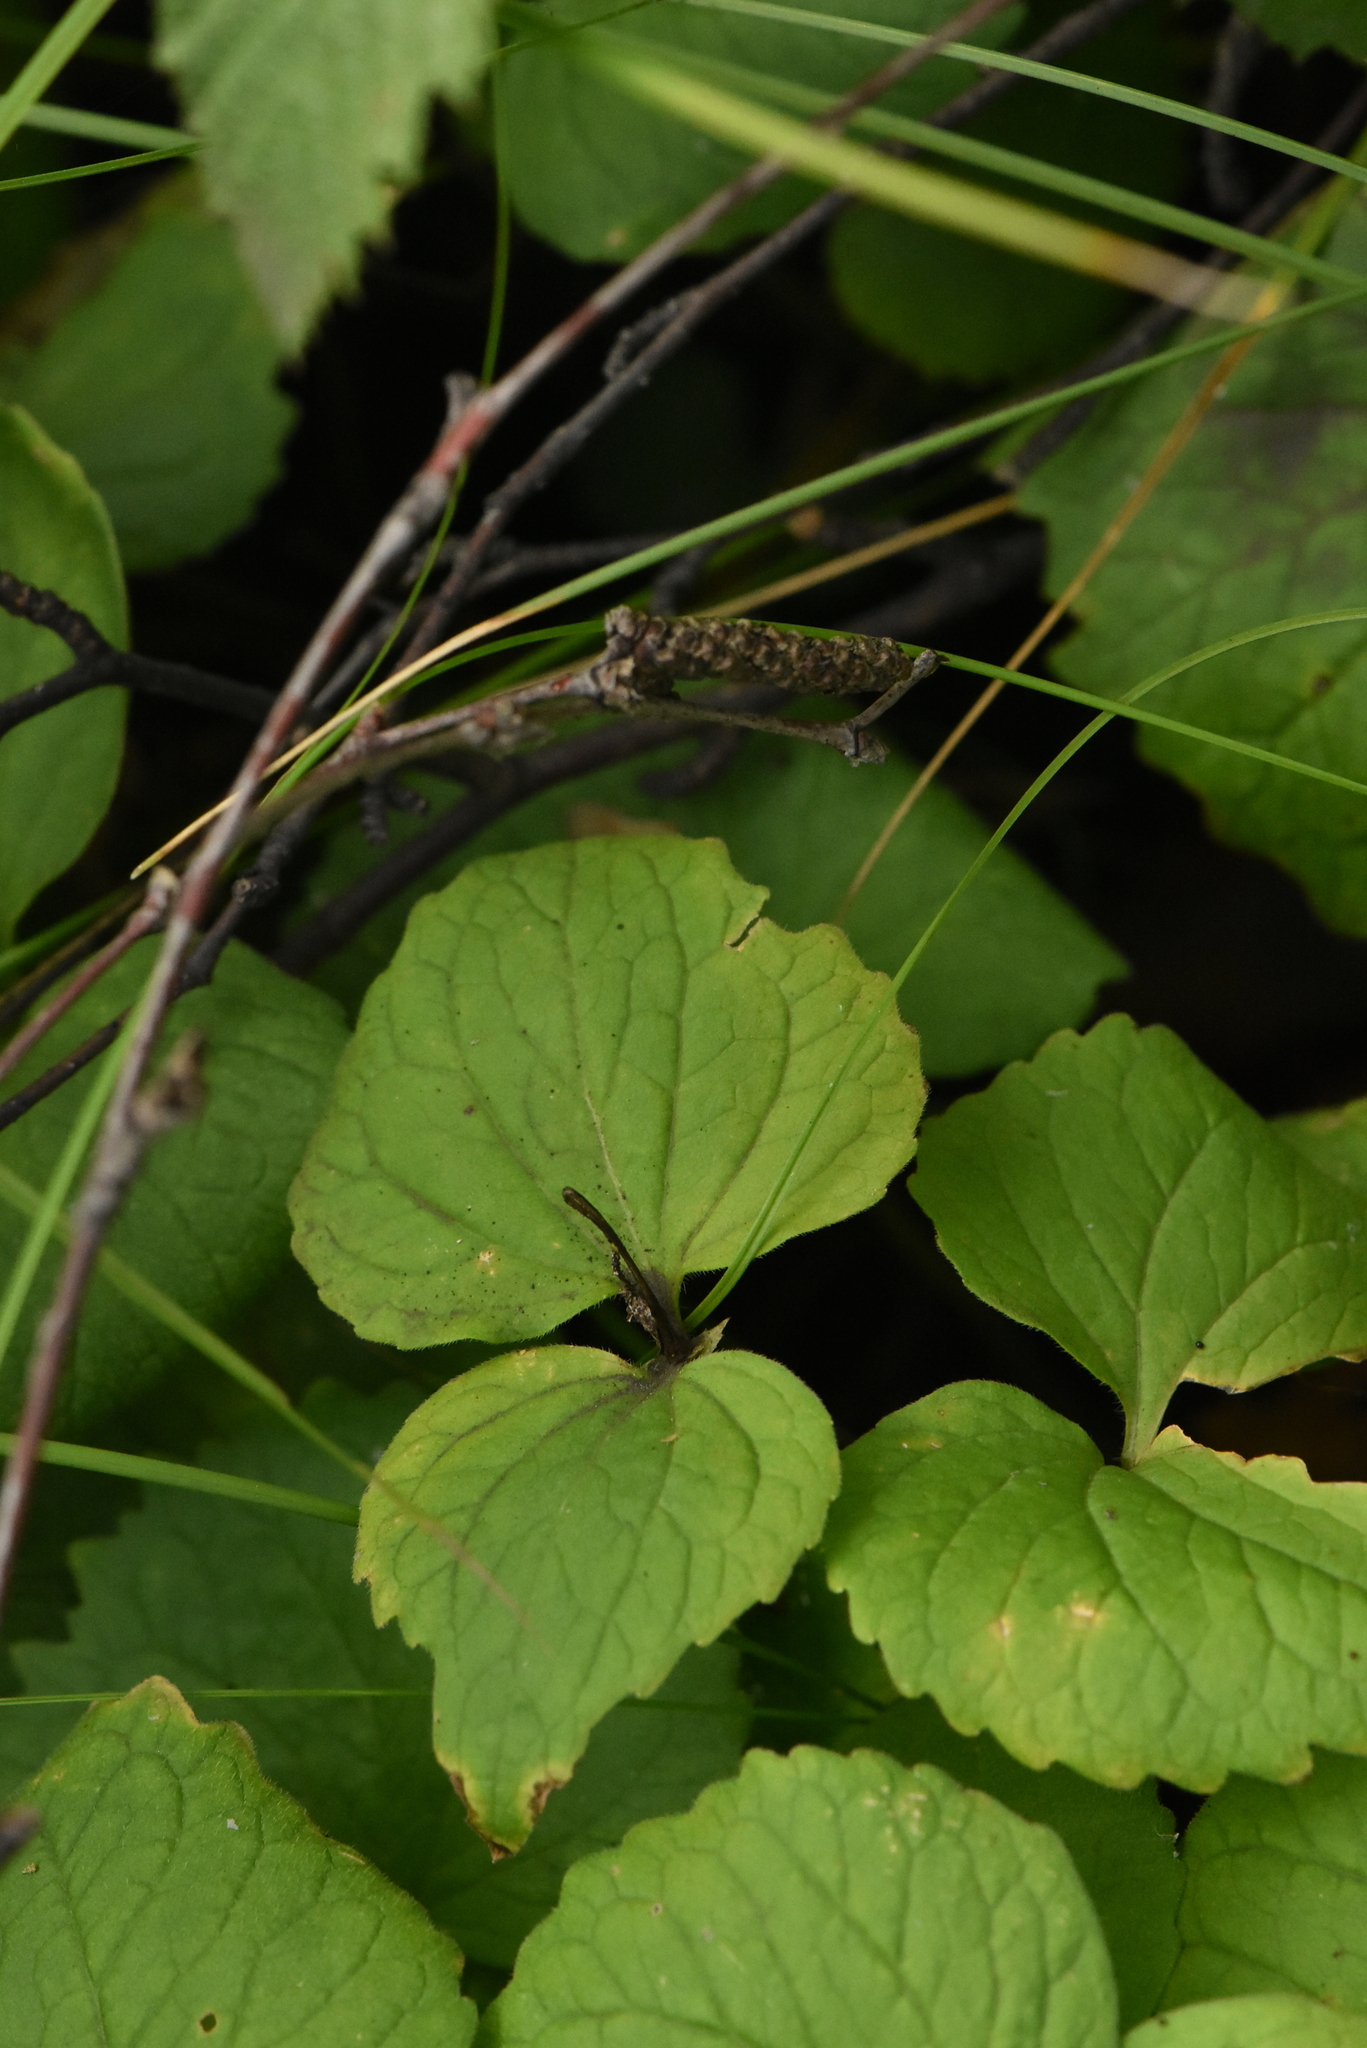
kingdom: Plantae
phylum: Tracheophyta
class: Magnoliopsida
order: Malpighiales
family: Violaceae
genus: Viola
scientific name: Viola uniflora
